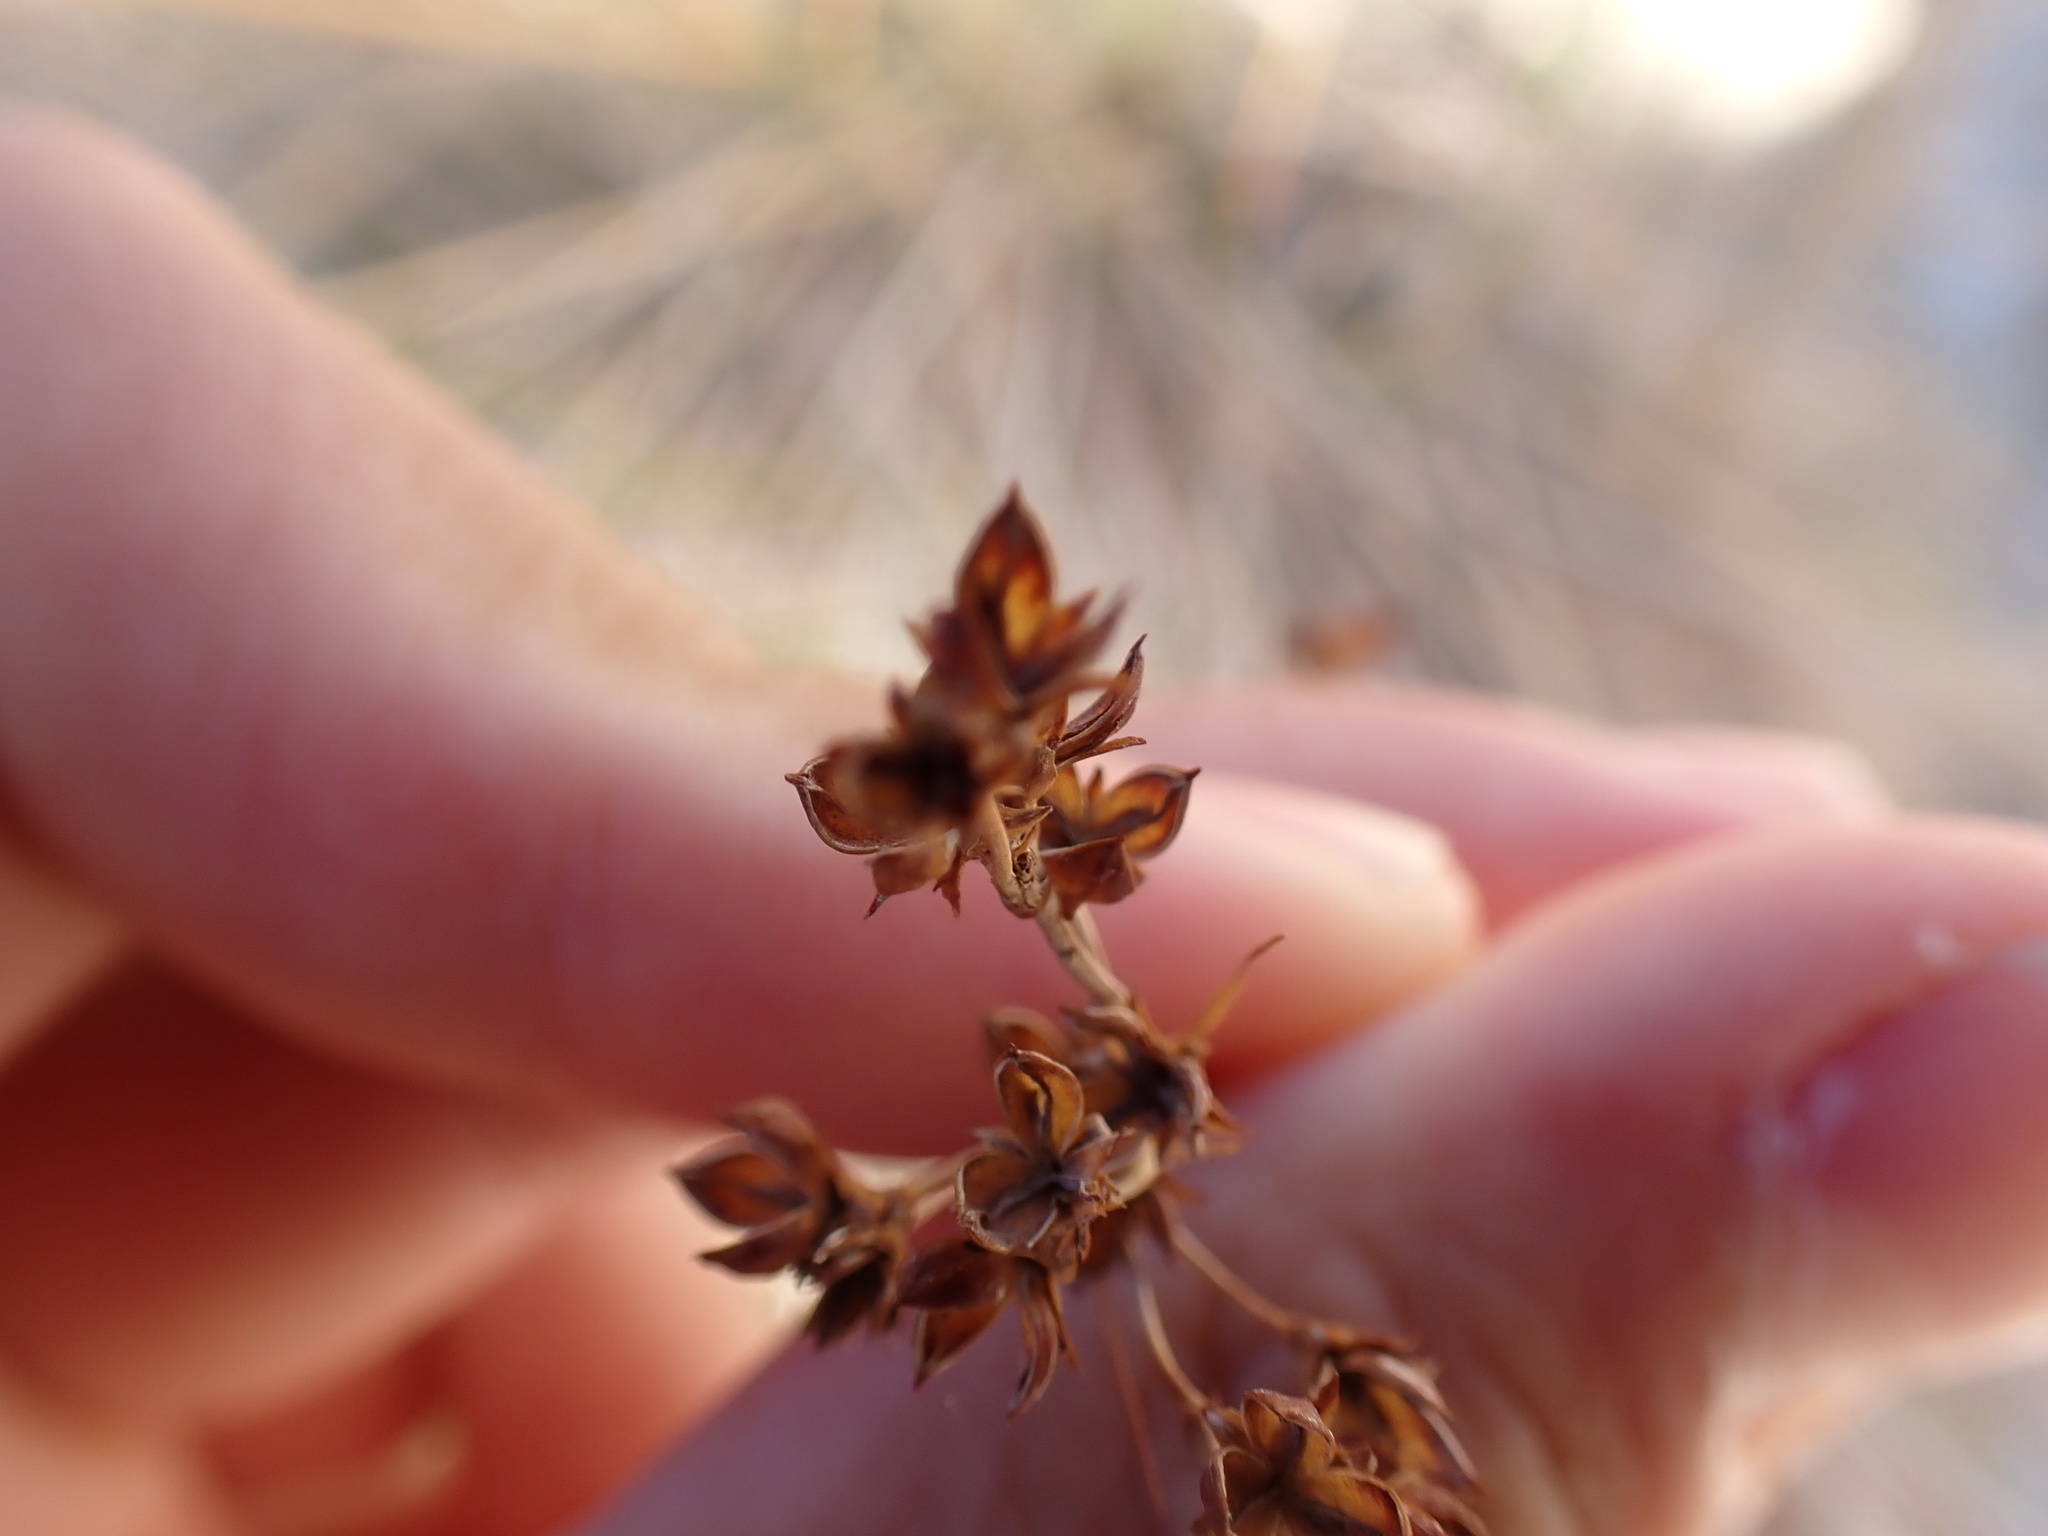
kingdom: Plantae
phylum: Tracheophyta
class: Liliopsida
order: Poales
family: Juncaceae
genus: Juncus
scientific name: Juncus acutus
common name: Sharp rush
